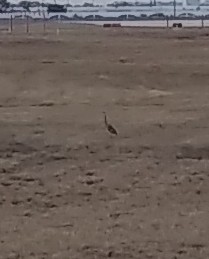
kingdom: Animalia
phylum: Chordata
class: Aves
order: Pelecaniformes
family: Ardeidae
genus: Ardea
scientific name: Ardea herodias
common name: Great blue heron
